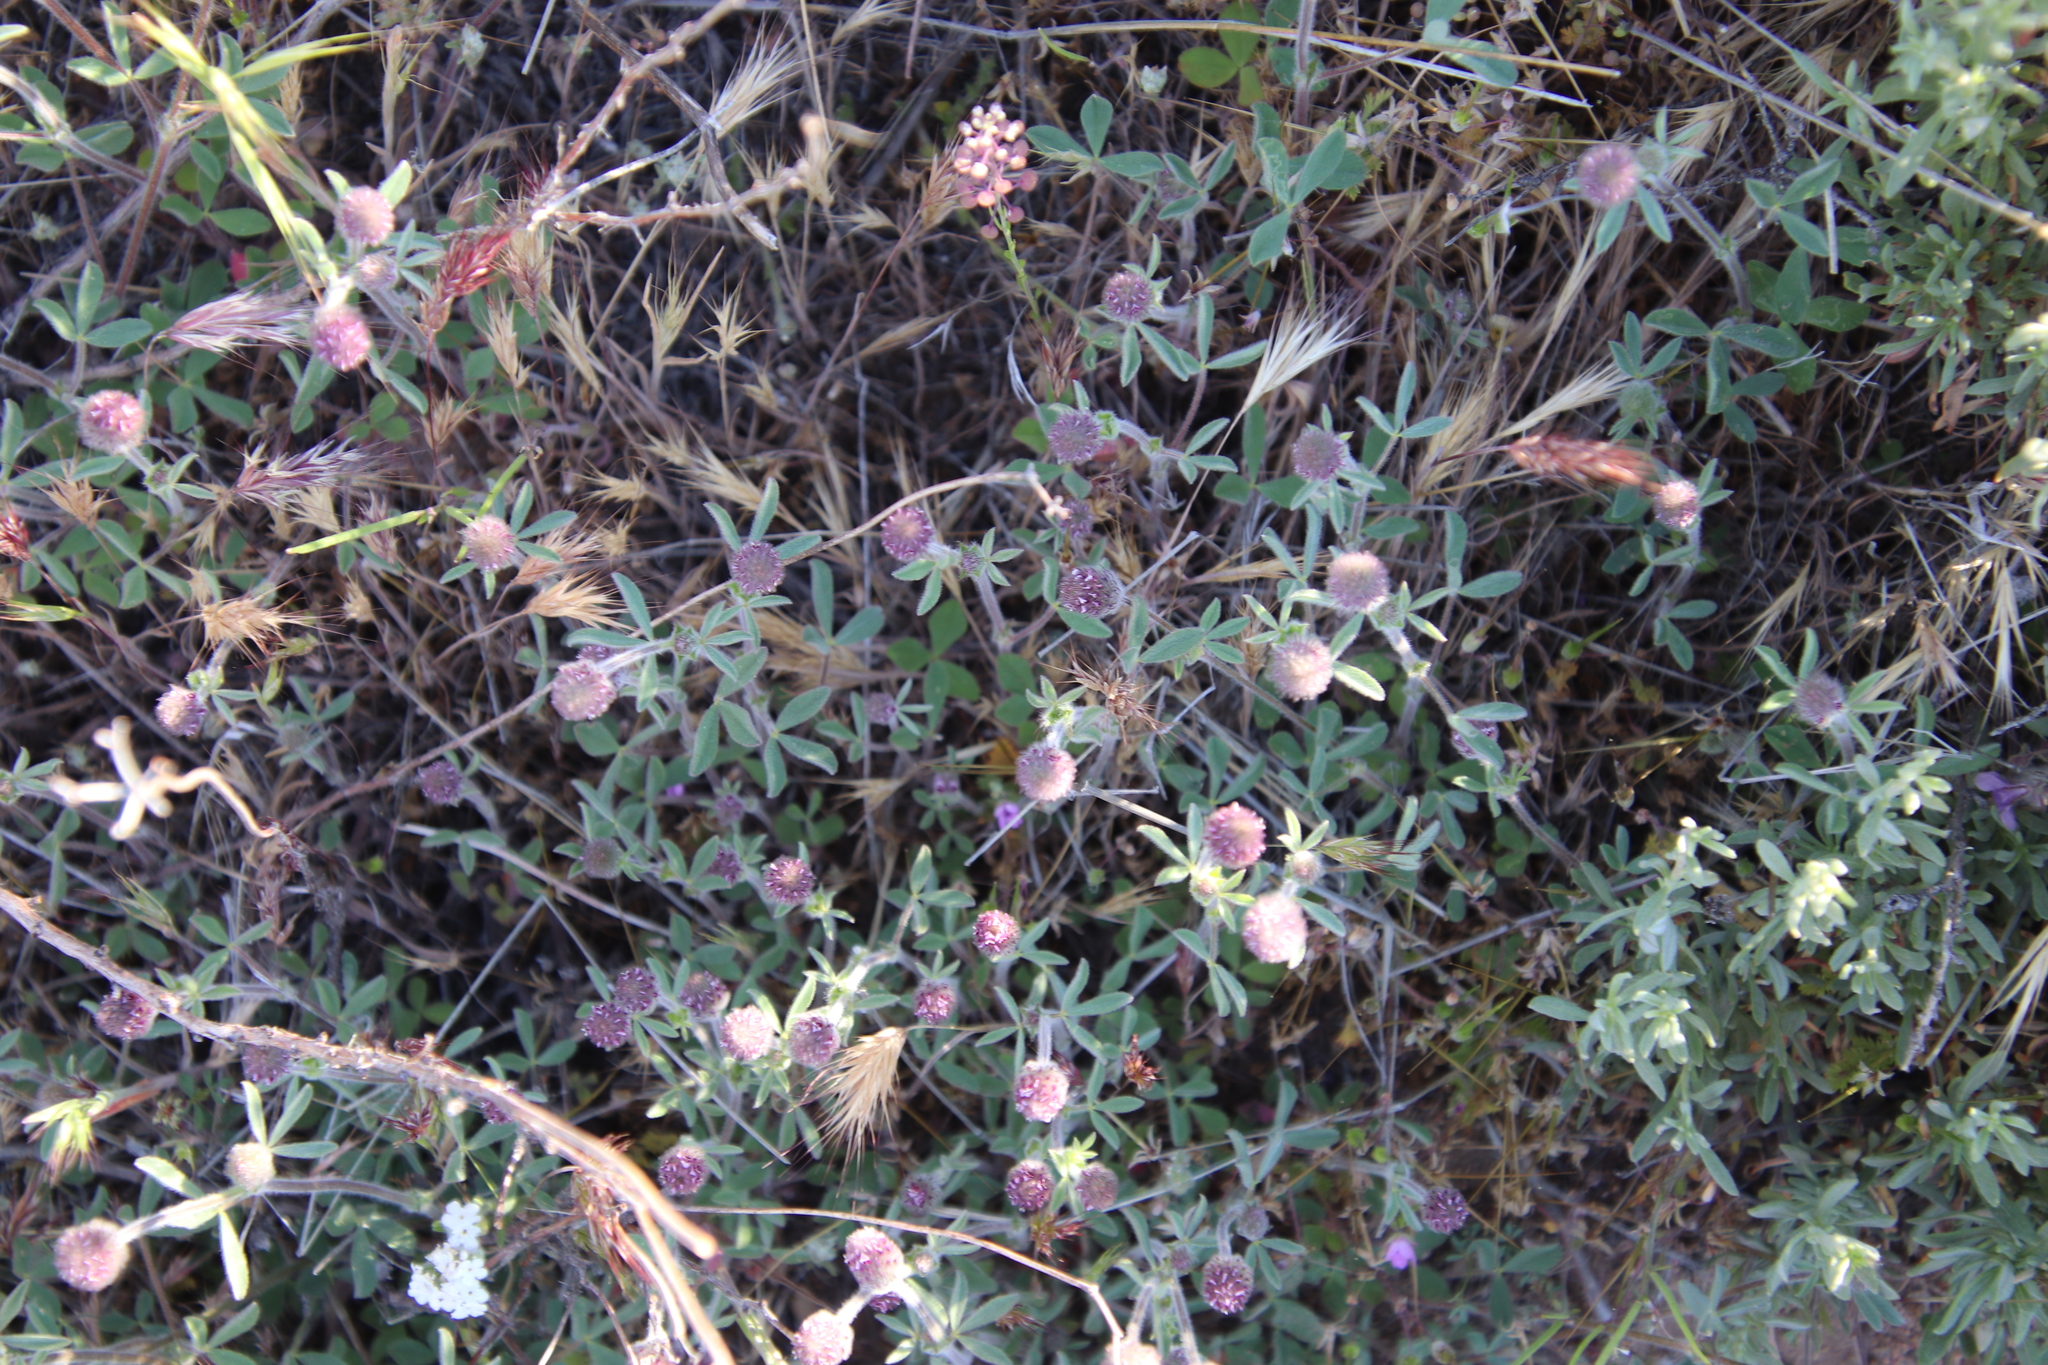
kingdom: Plantae
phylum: Tracheophyta
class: Magnoliopsida
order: Fabales
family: Fabaceae
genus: Trifolium
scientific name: Trifolium albopurpureum
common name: Rancheria clover
